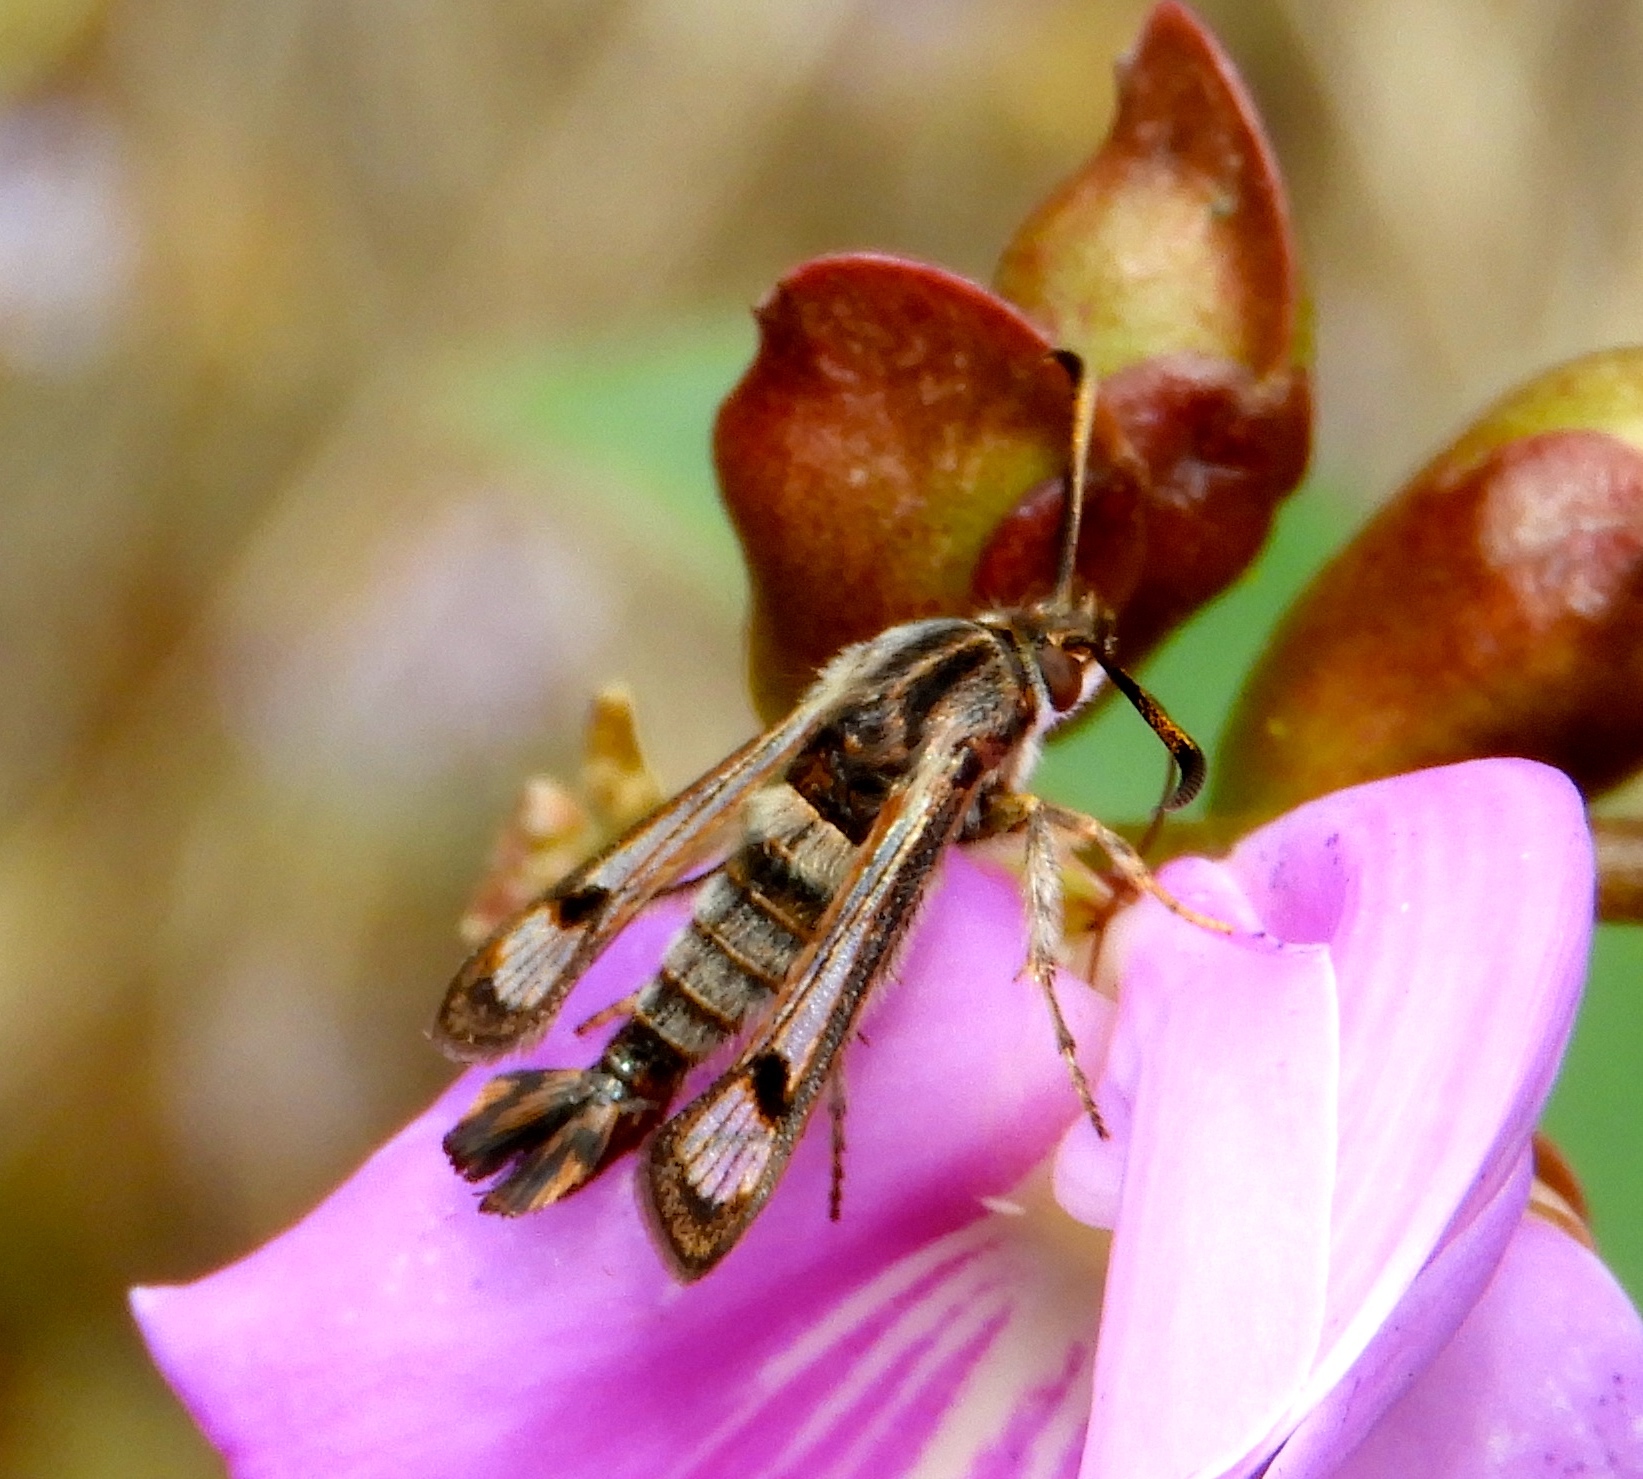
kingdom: Animalia
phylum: Arthropoda
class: Insecta
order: Lepidoptera
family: Sesiidae
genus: Osminia
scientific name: Osminia
